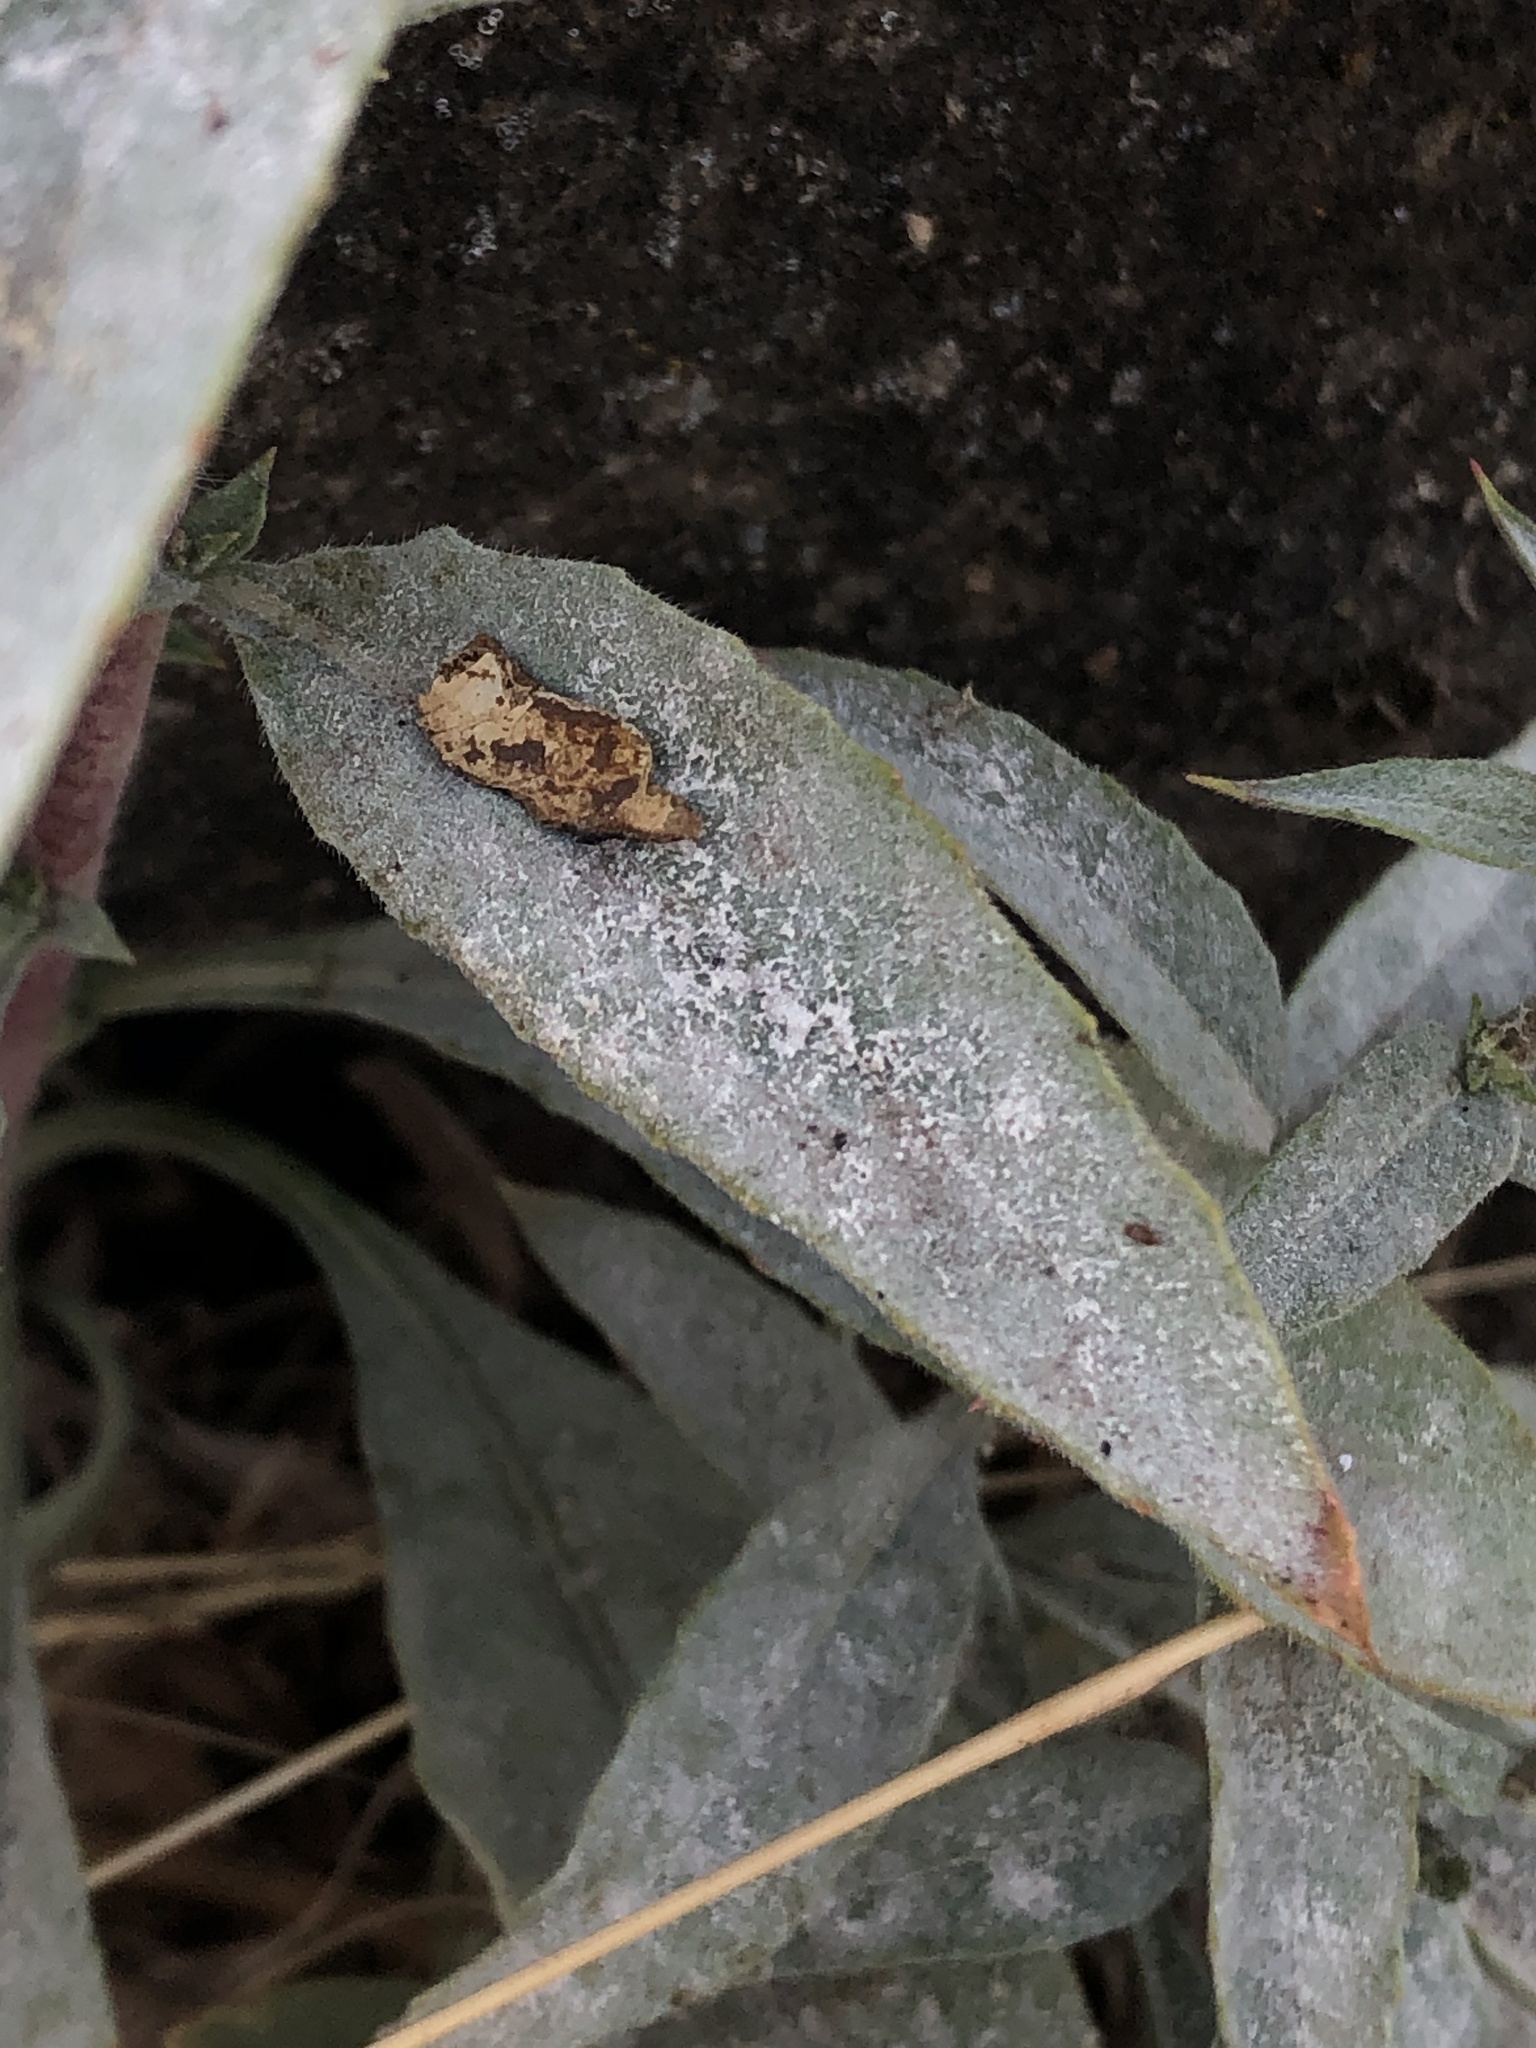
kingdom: Fungi
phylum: Ascomycota
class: Leotiomycetes
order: Helotiales
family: Erysiphaceae
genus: Erysiphe
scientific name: Erysiphe howeana
